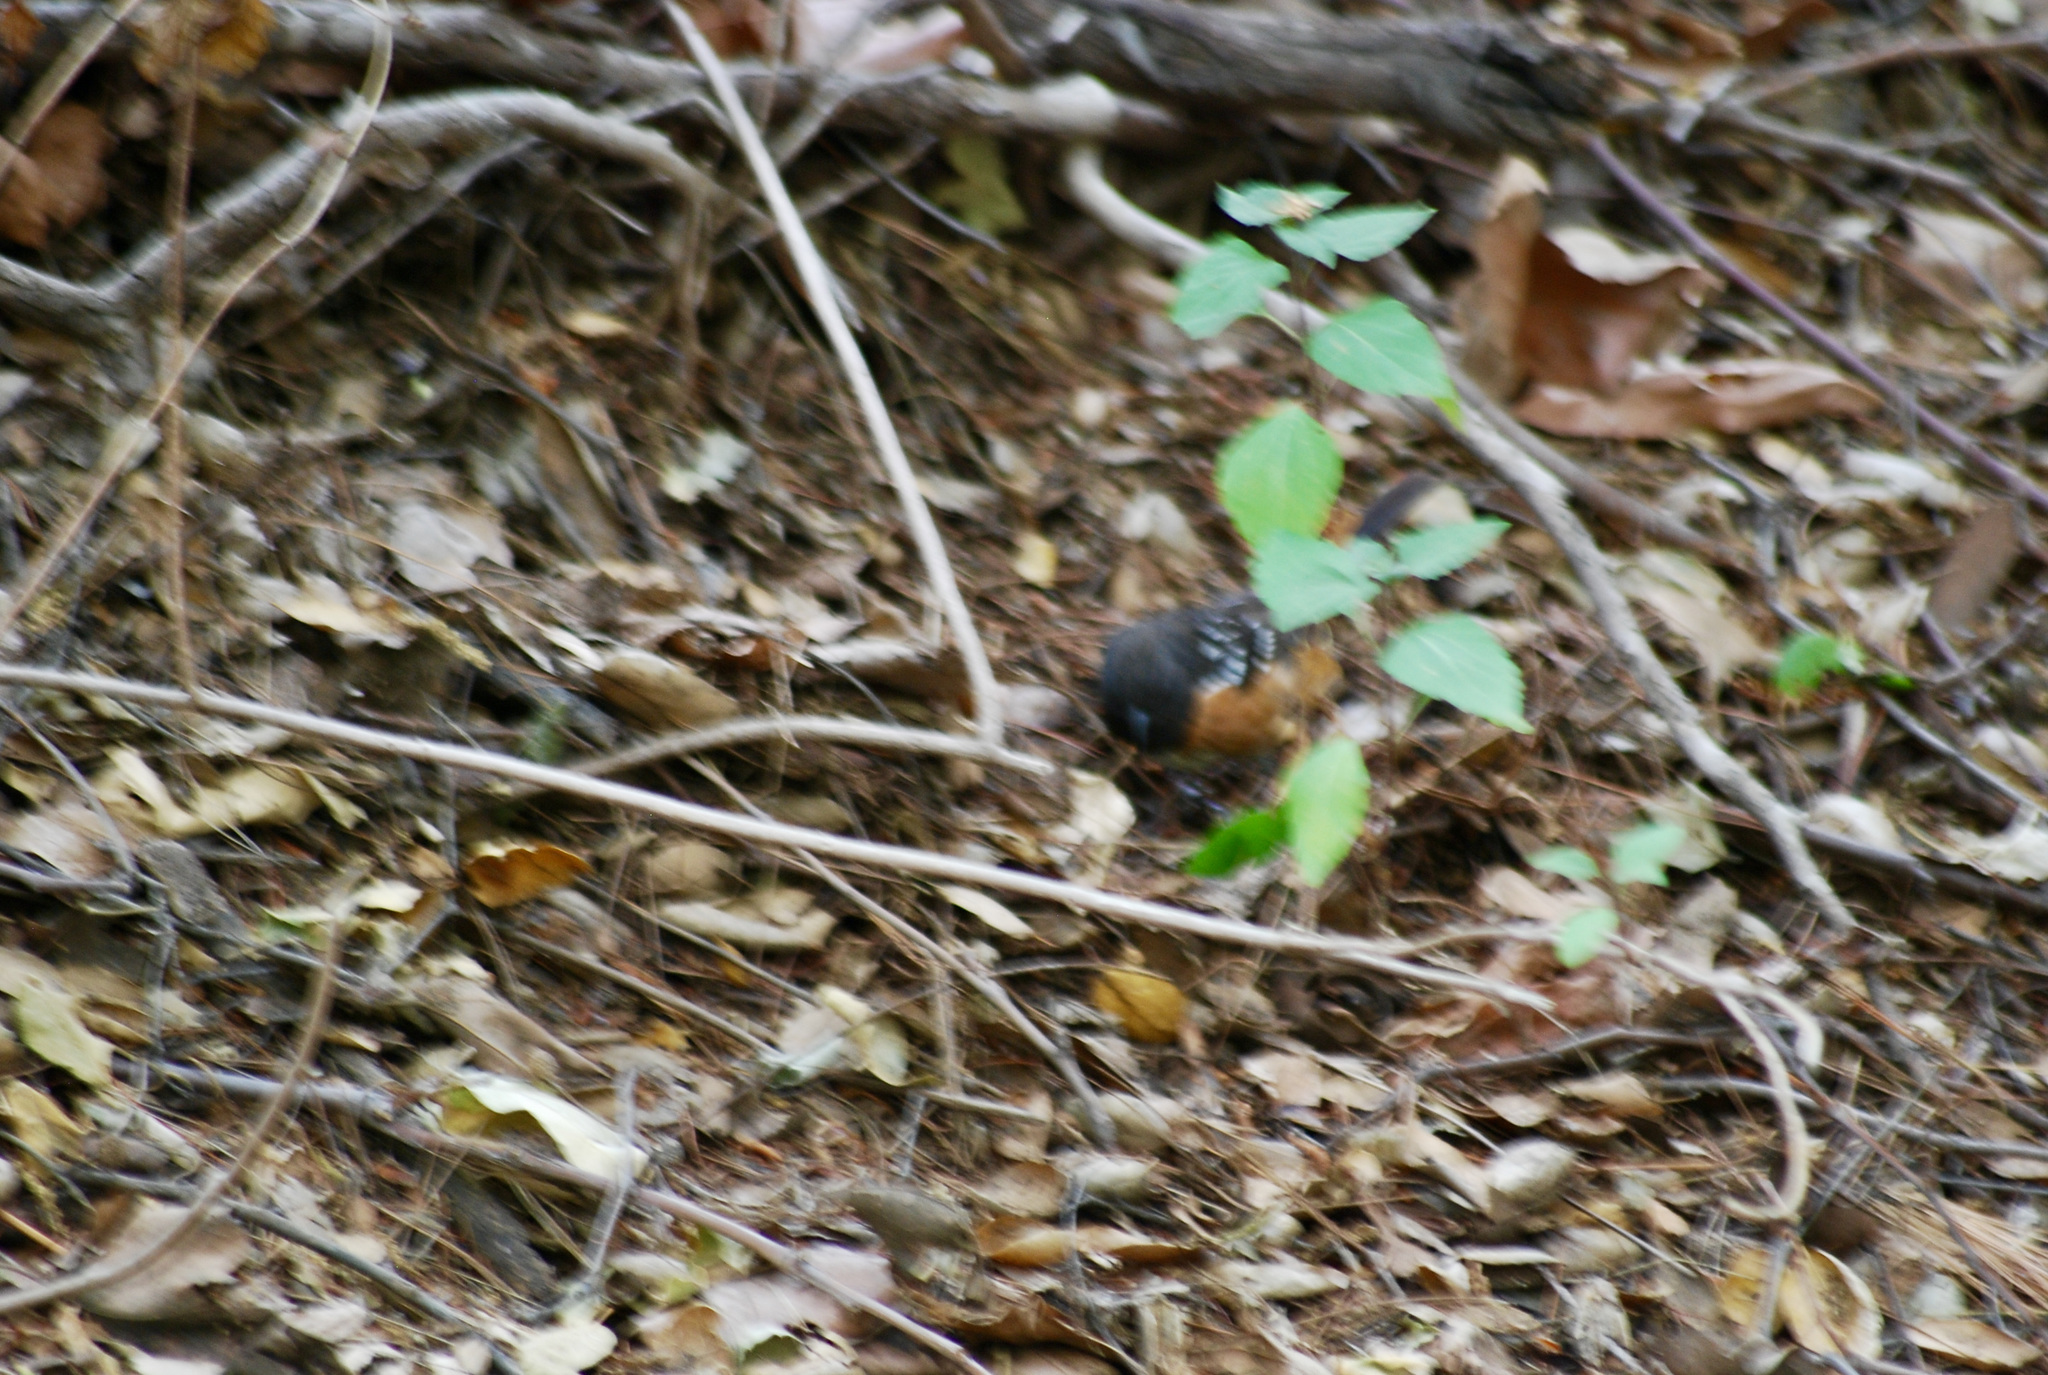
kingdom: Animalia
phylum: Chordata
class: Aves
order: Passeriformes
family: Passerellidae
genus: Pipilo
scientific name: Pipilo maculatus
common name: Spotted towhee
